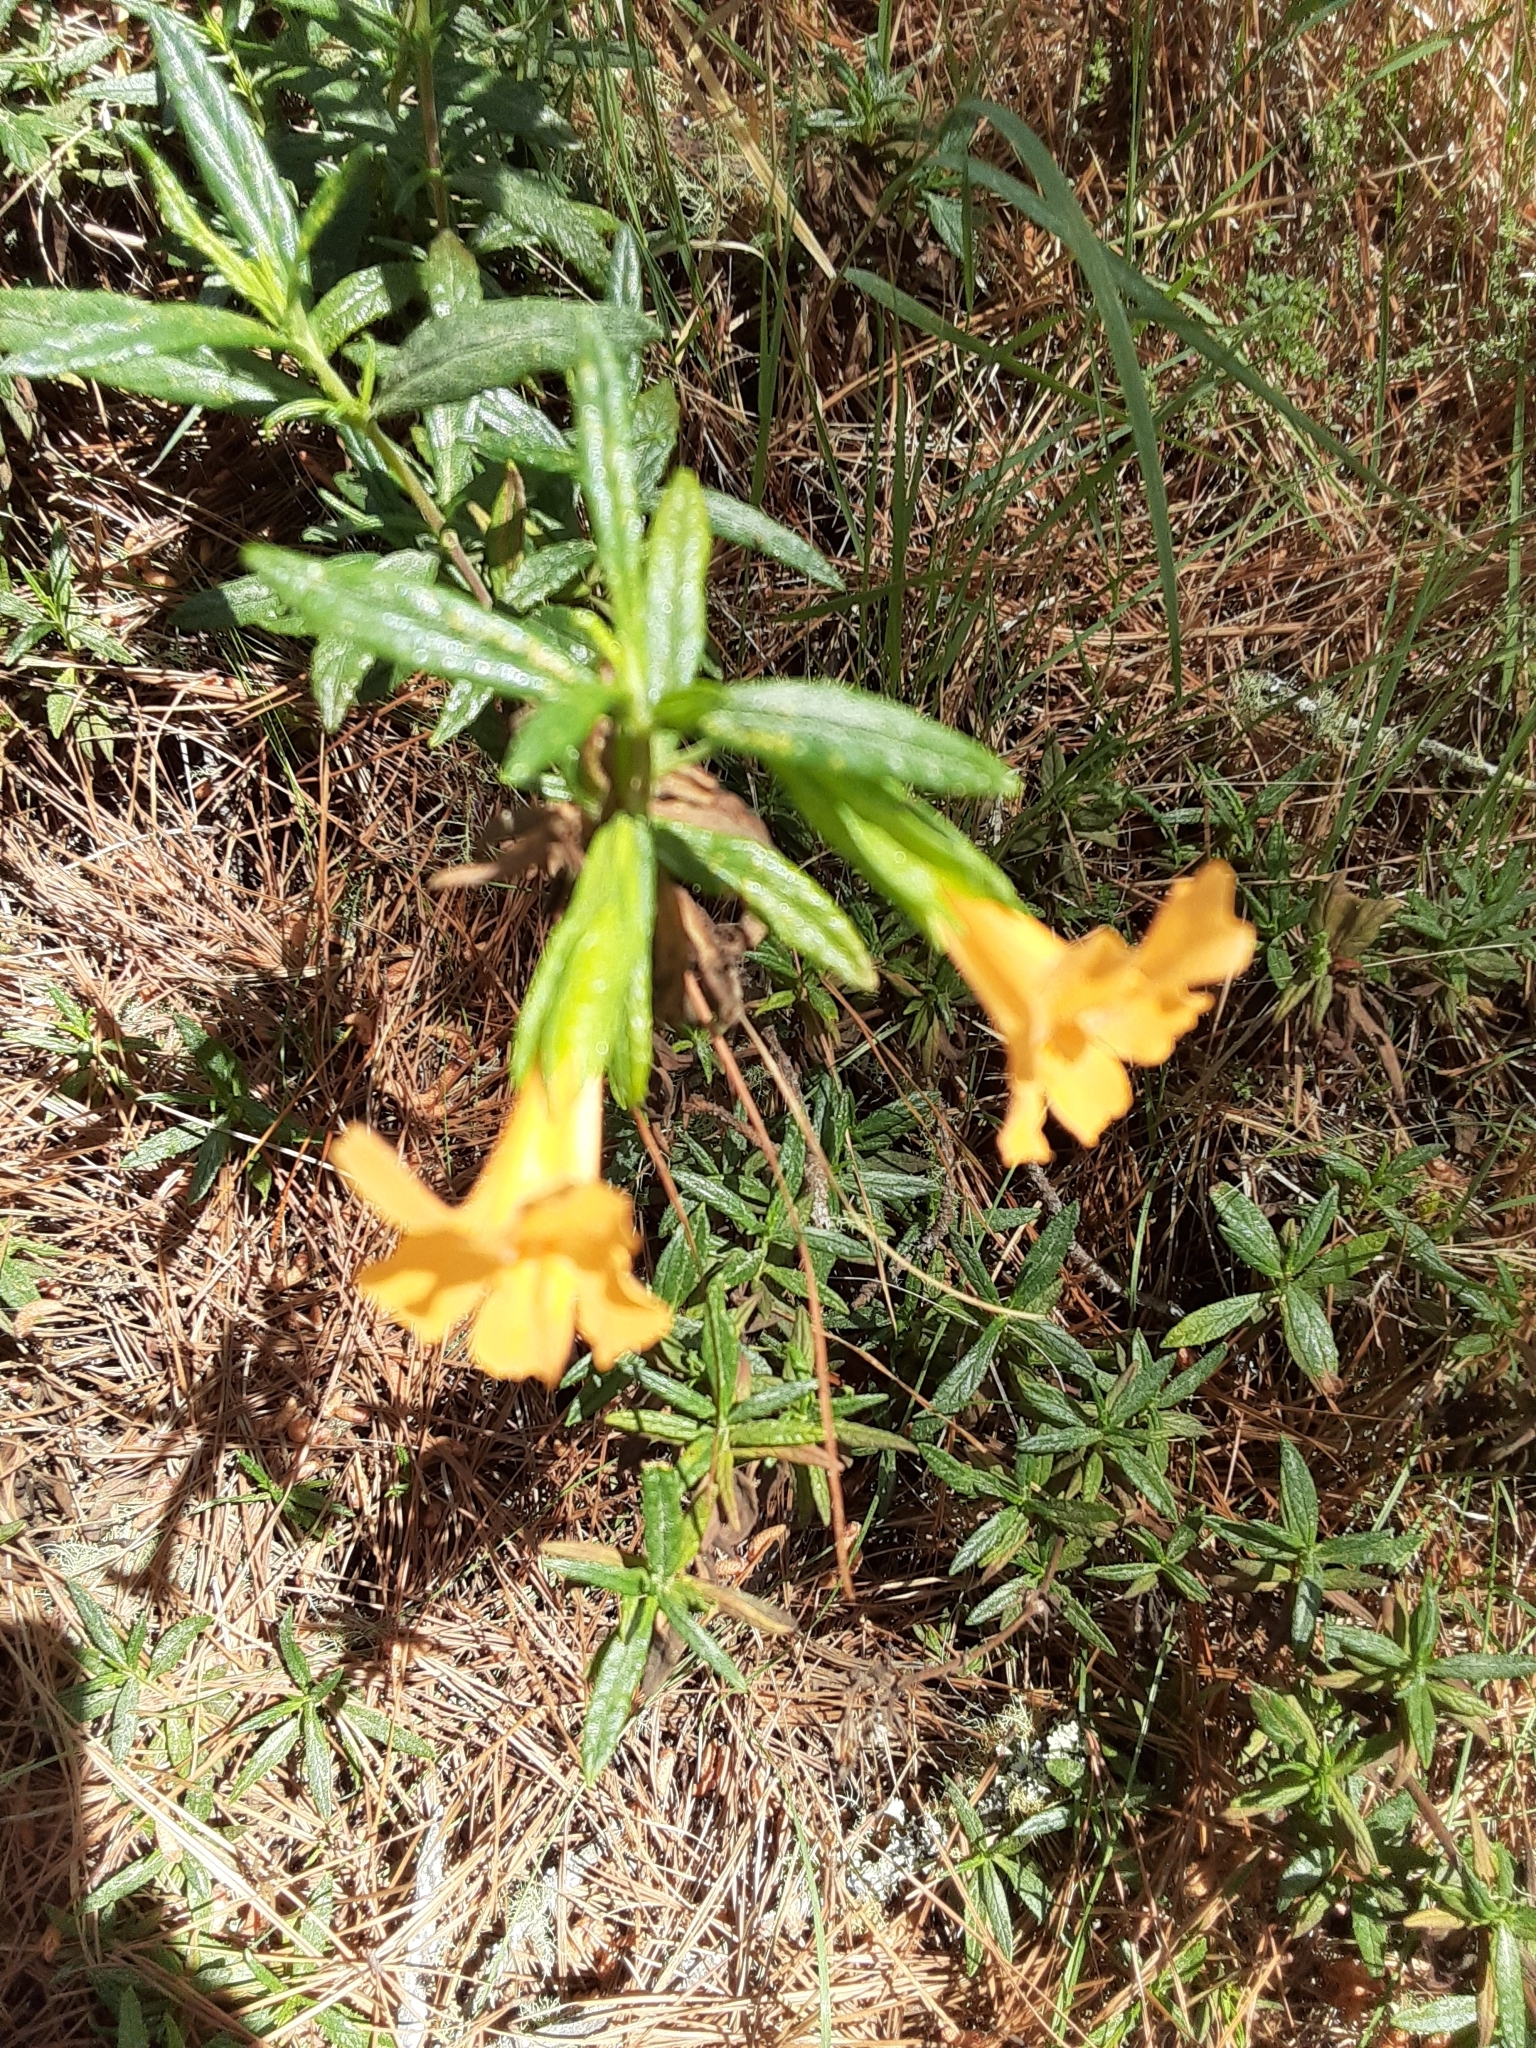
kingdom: Plantae
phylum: Tracheophyta
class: Magnoliopsida
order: Lamiales
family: Phrymaceae
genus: Diplacus
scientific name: Diplacus aurantiacus
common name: Bush monkey-flower
